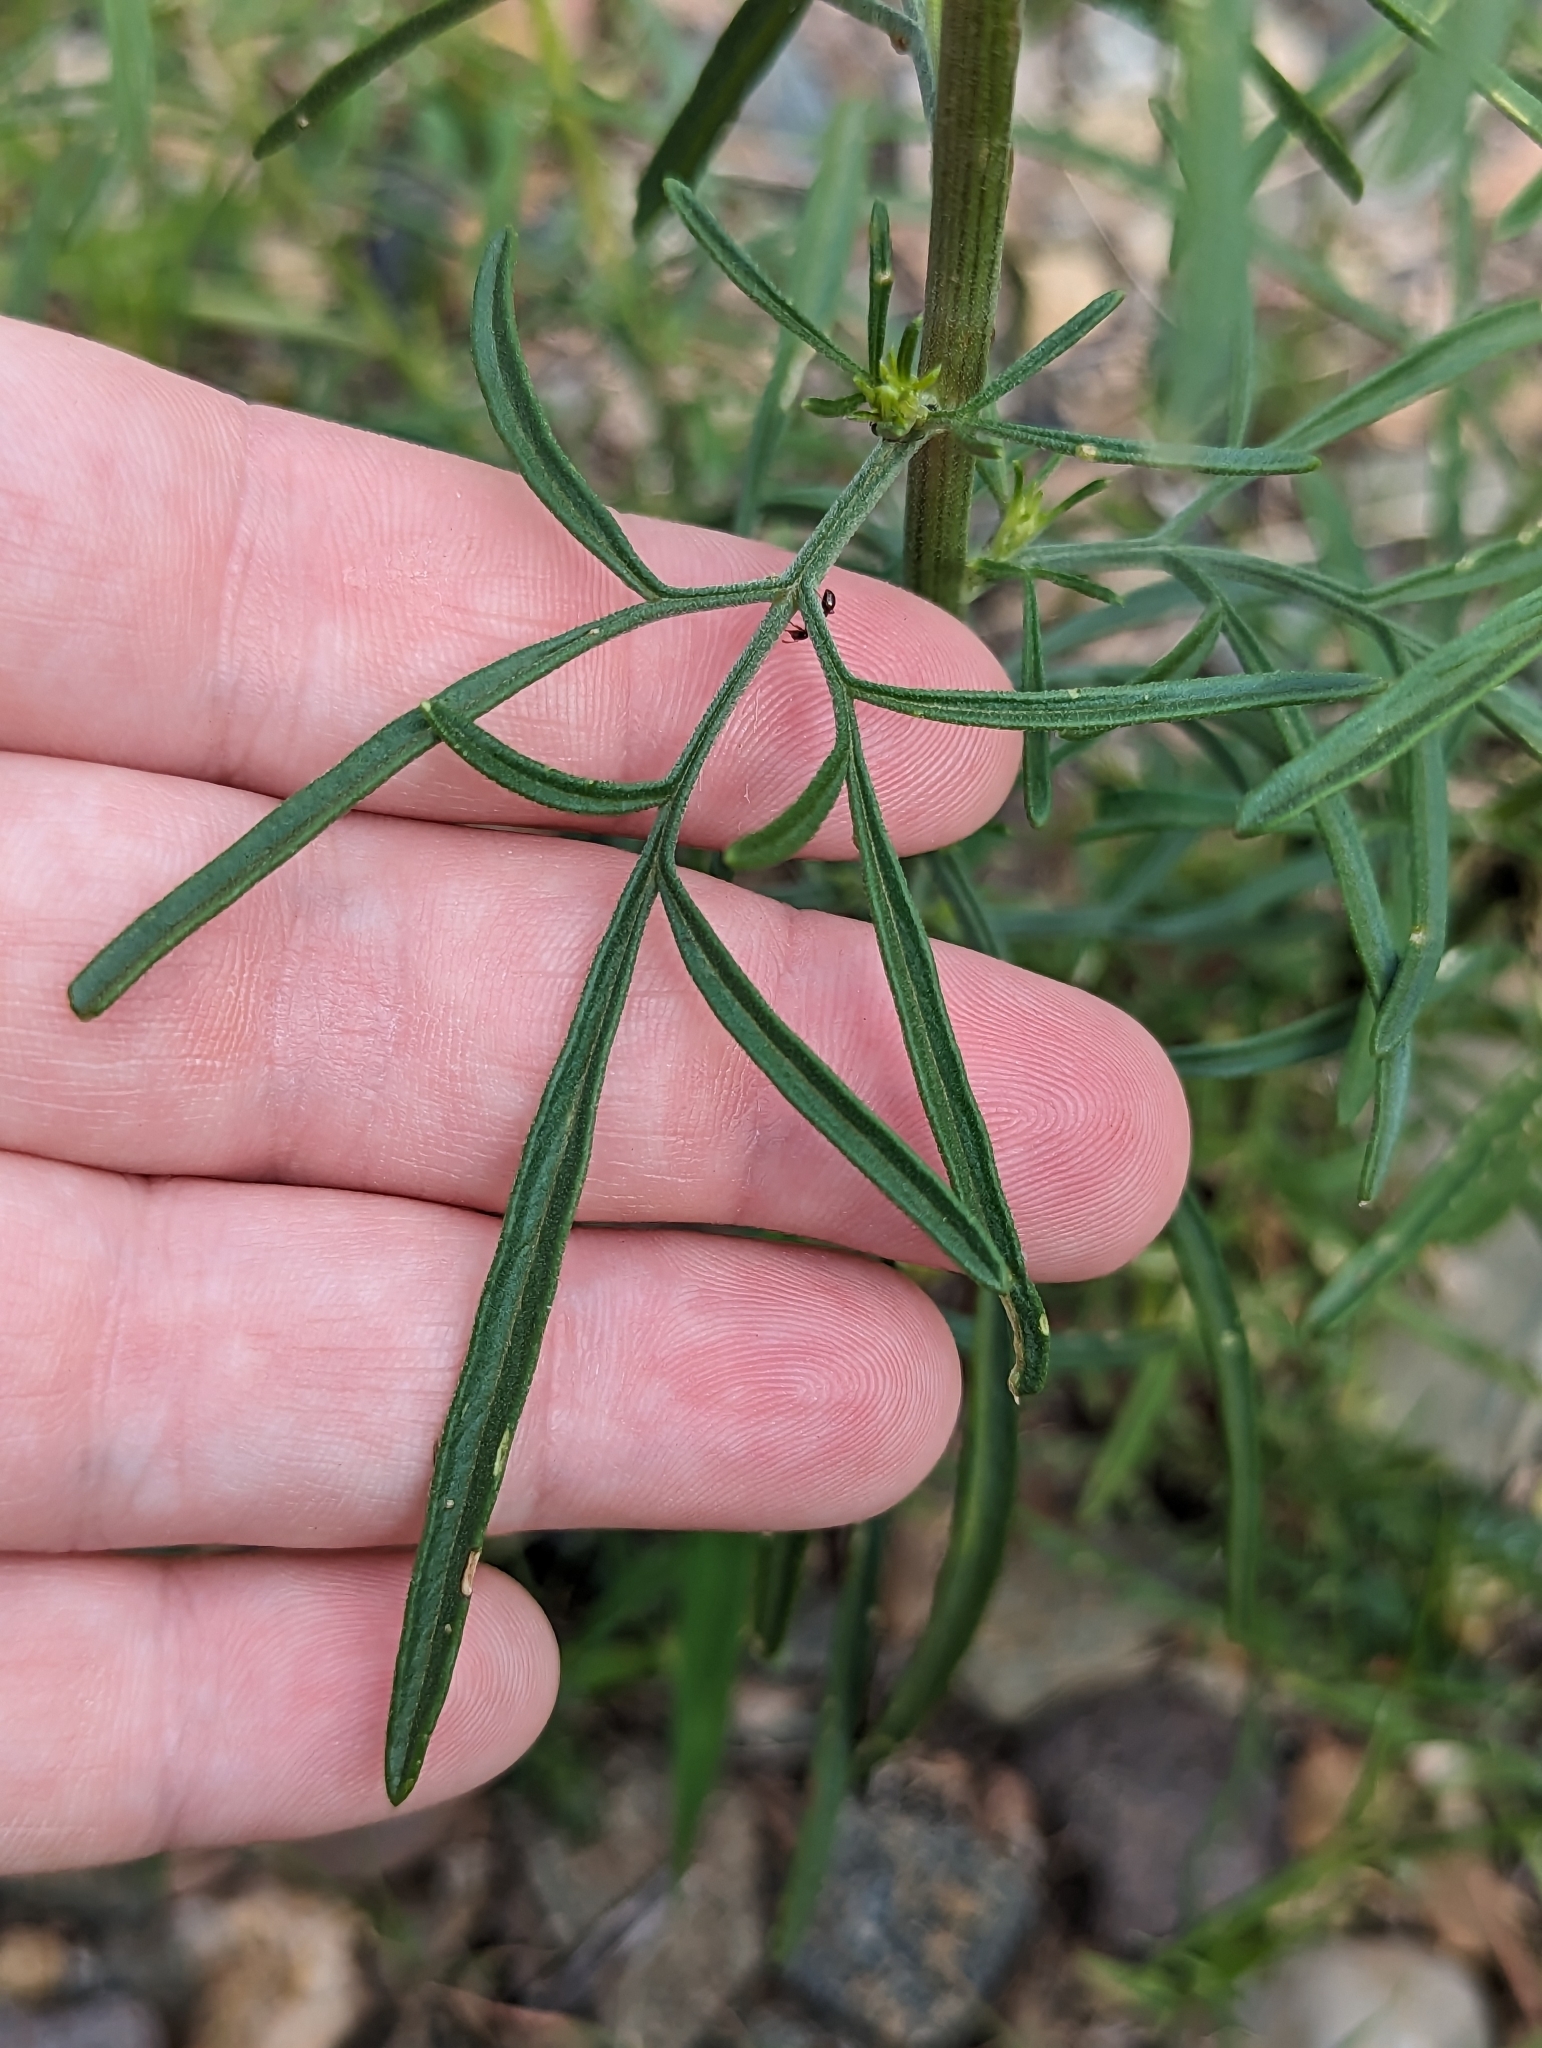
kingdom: Plantae
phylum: Tracheophyta
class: Magnoliopsida
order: Asterales
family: Asteraceae
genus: Hymenothrix
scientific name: Hymenothrix wrightii
